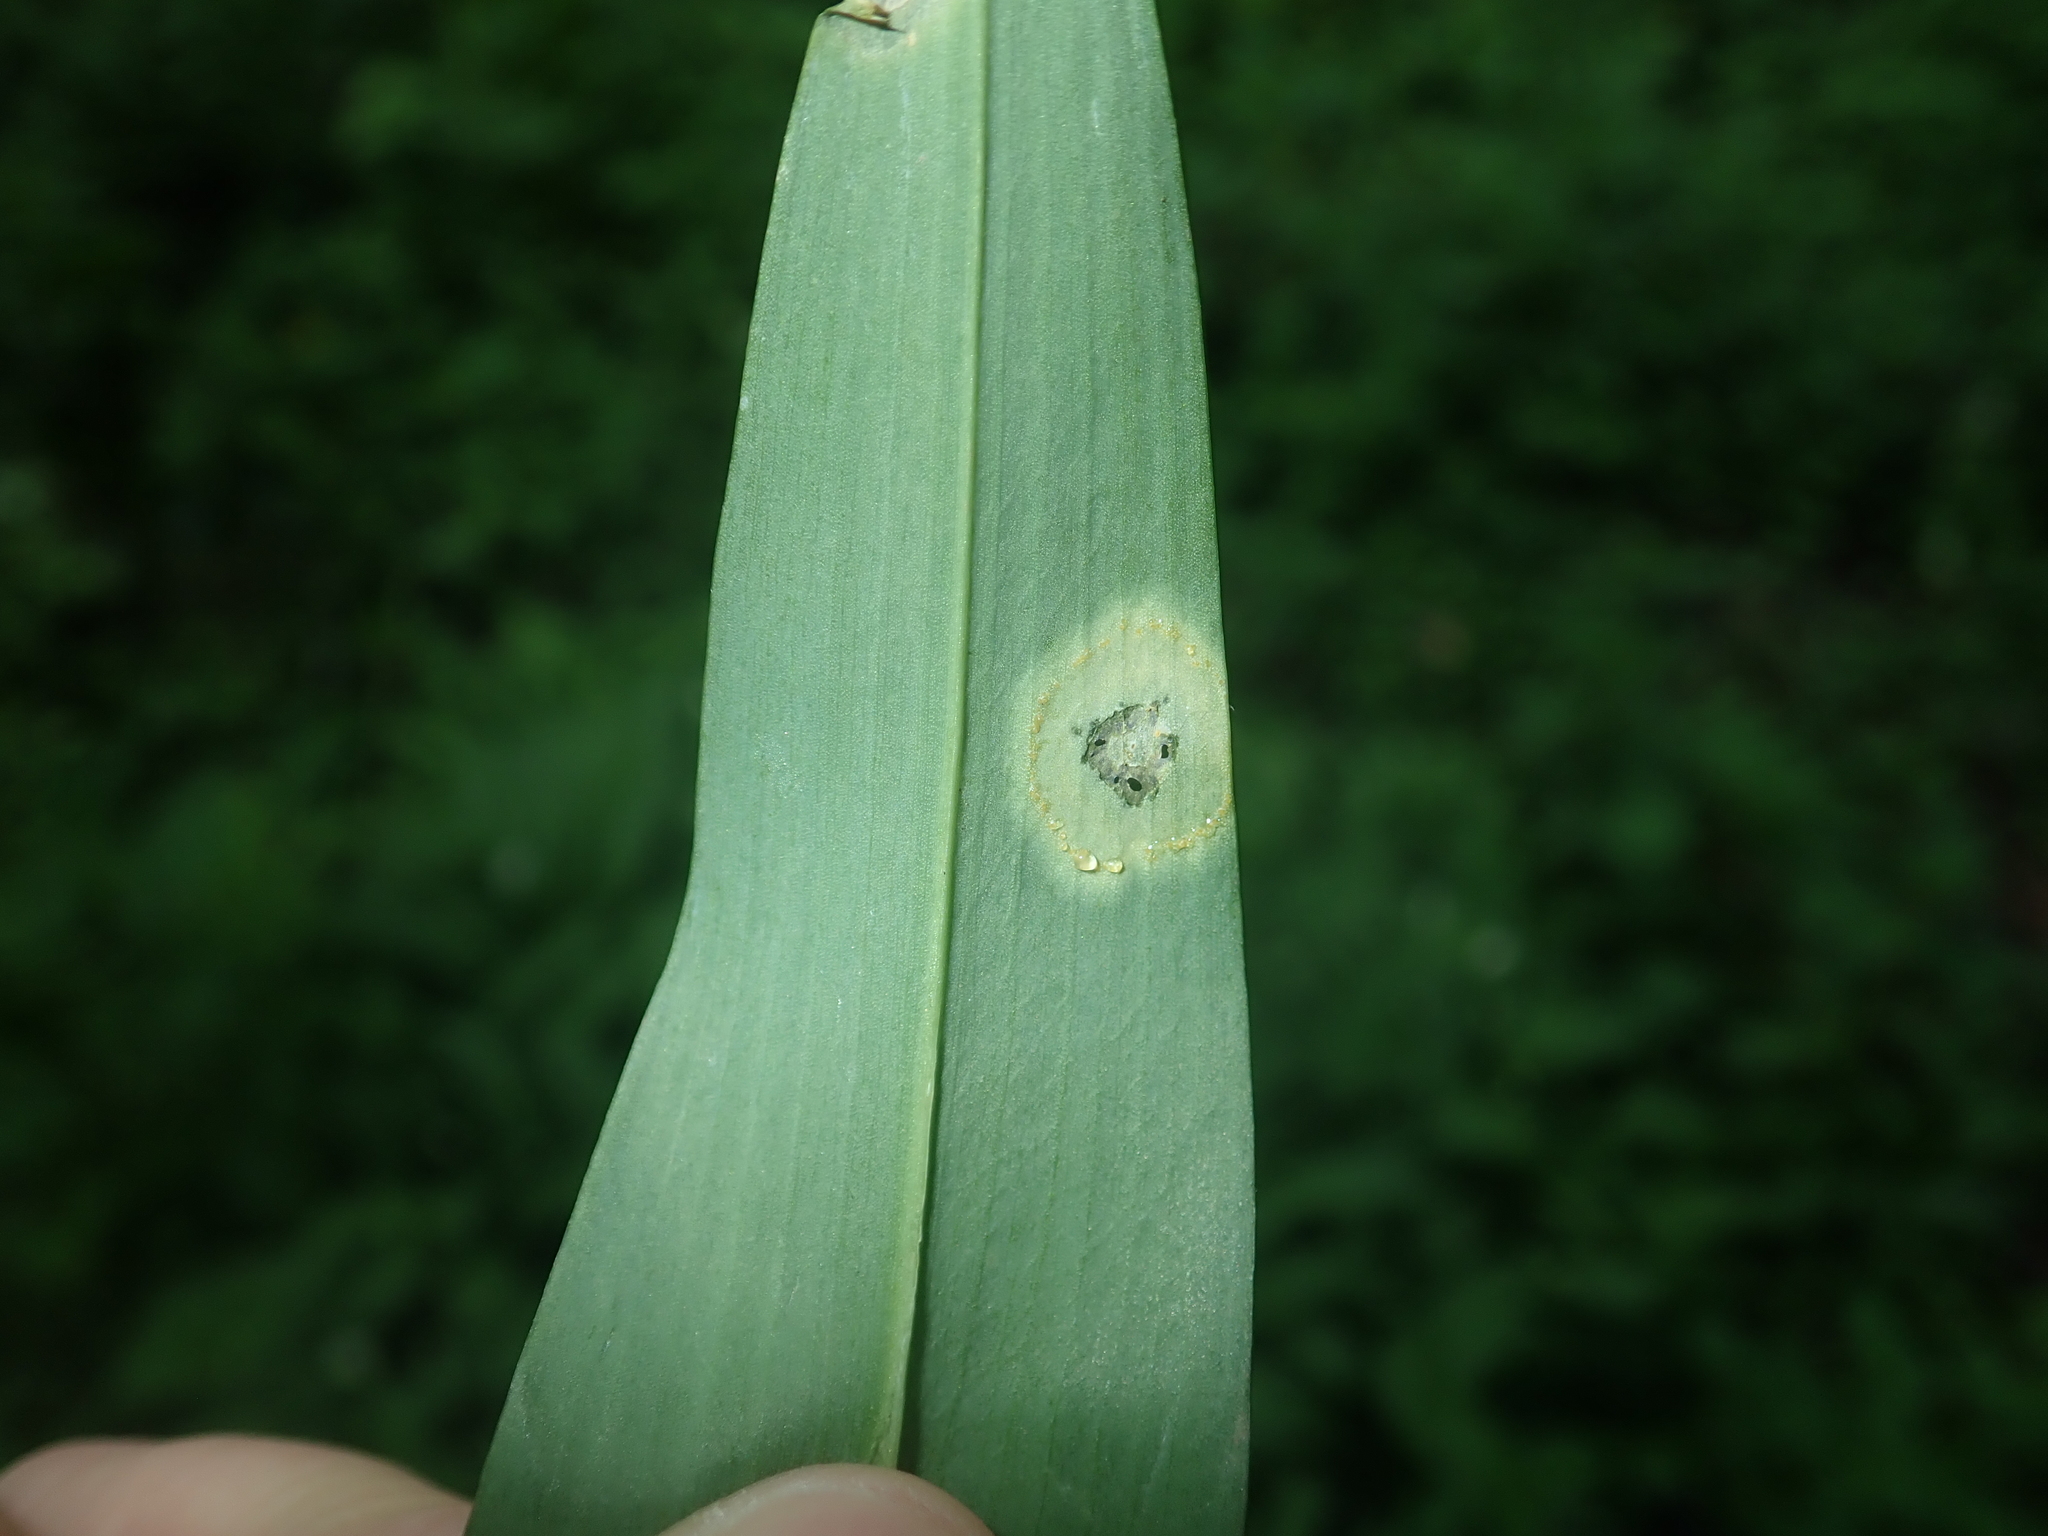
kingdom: Fungi
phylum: Basidiomycota
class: Pucciniomycetes
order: Pucciniales
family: Pucciniaceae
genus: Caeoma
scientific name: Caeoma allii-ursini
